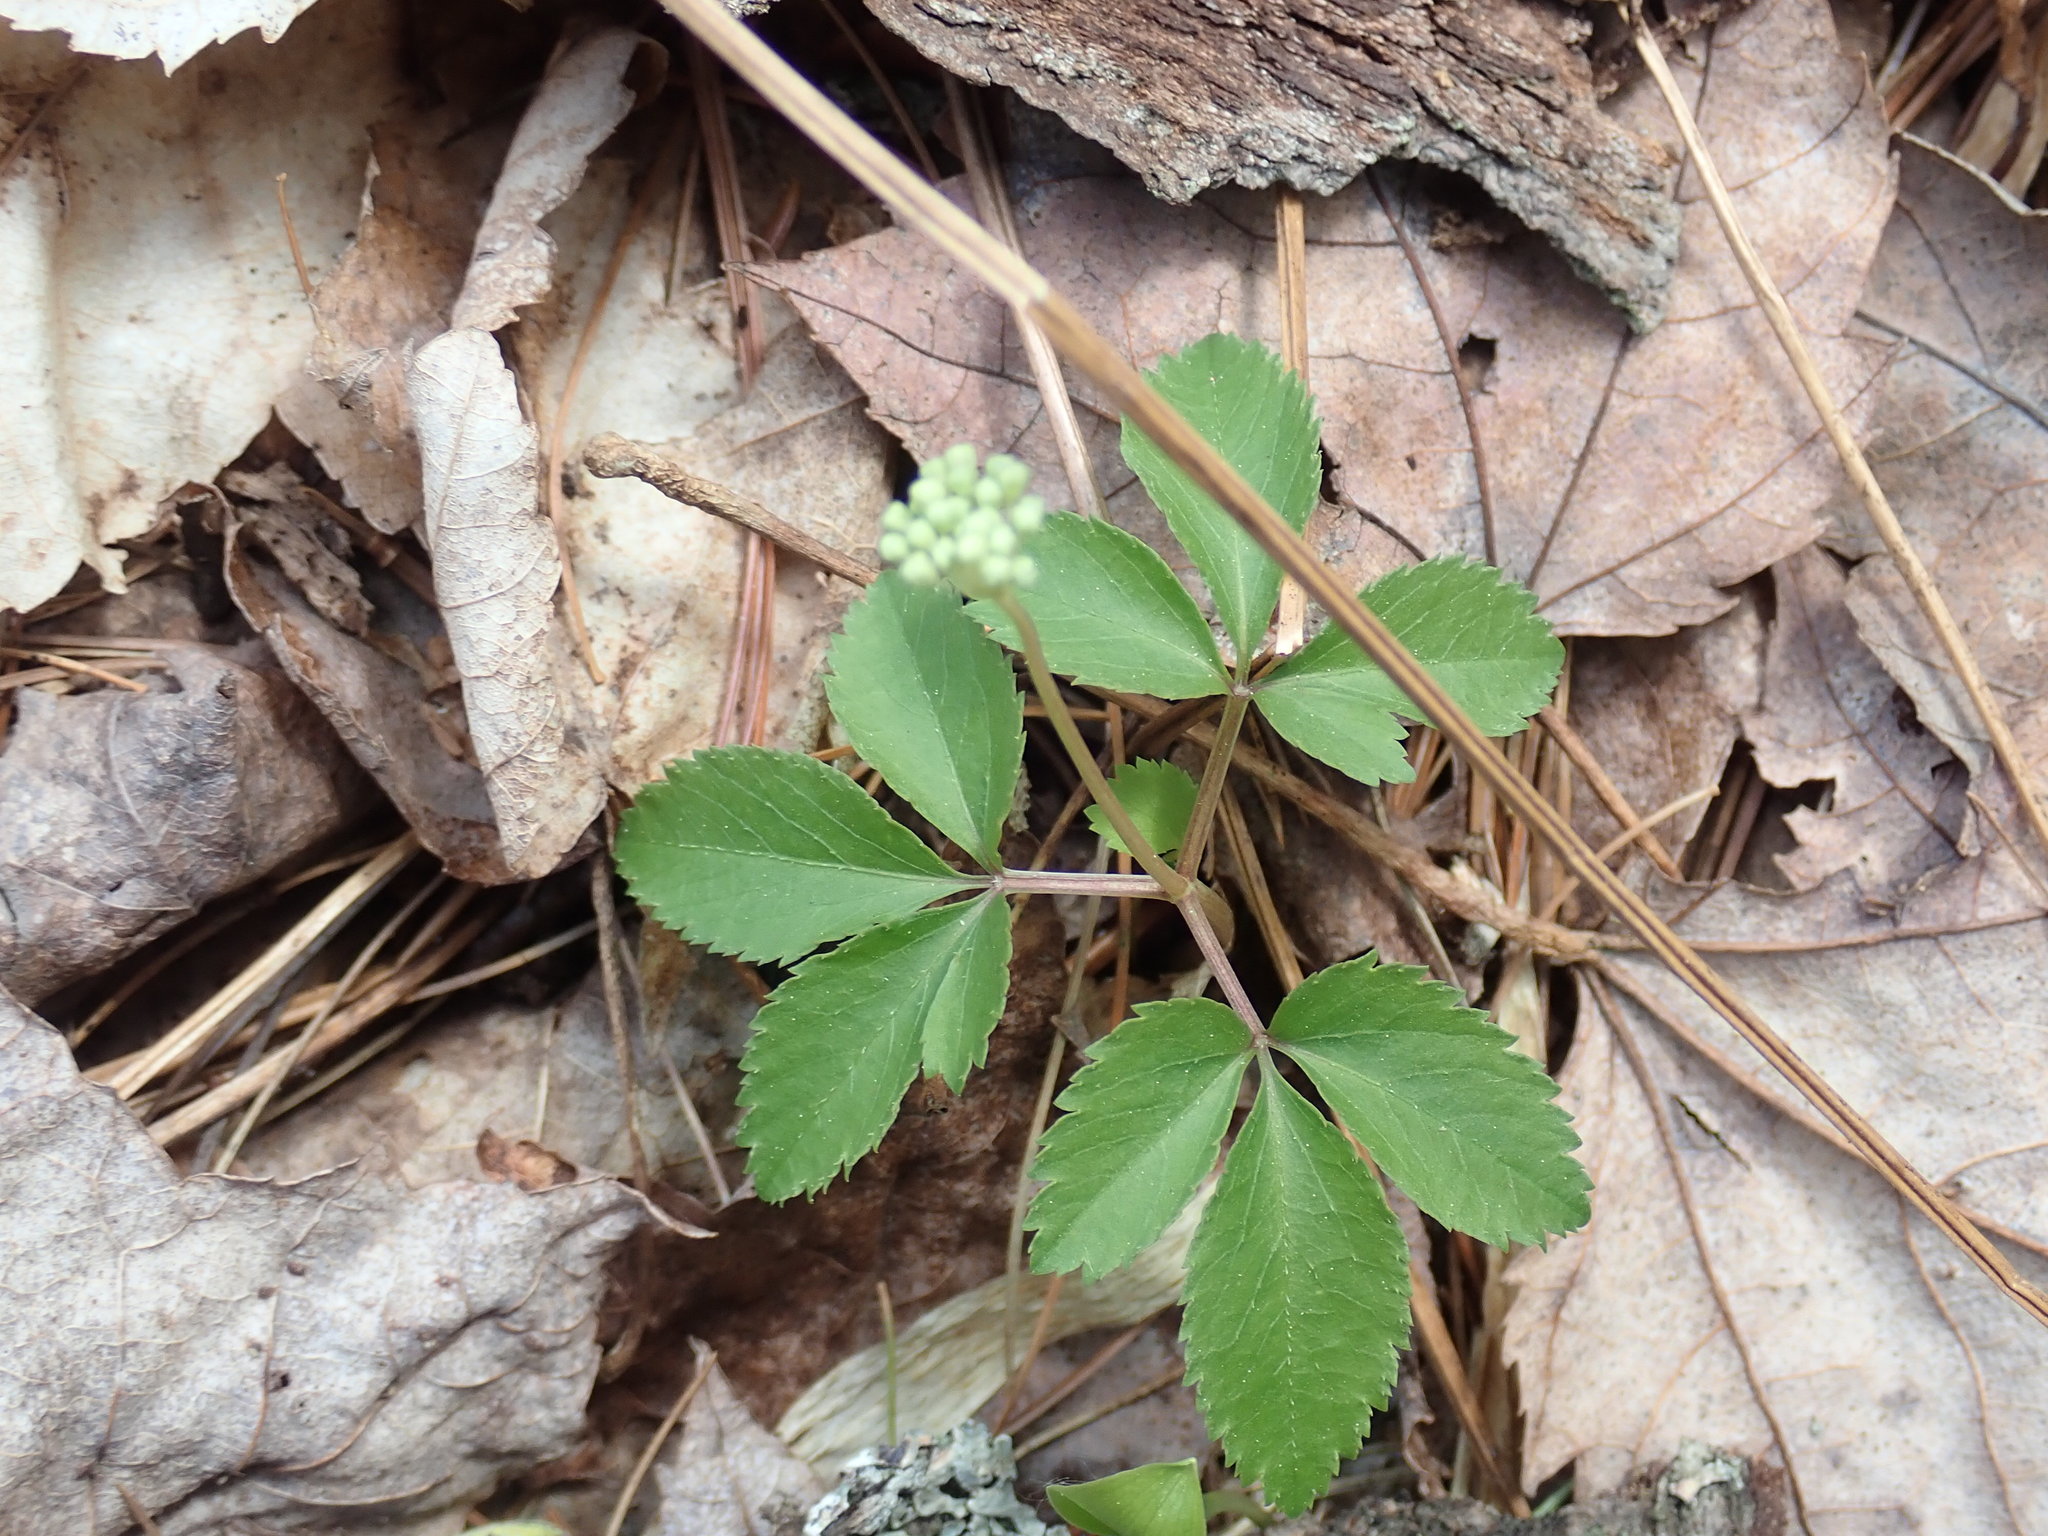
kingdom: Plantae
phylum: Tracheophyta
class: Magnoliopsida
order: Apiales
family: Araliaceae
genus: Panax
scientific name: Panax trifolius
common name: Dwarf ginseng
